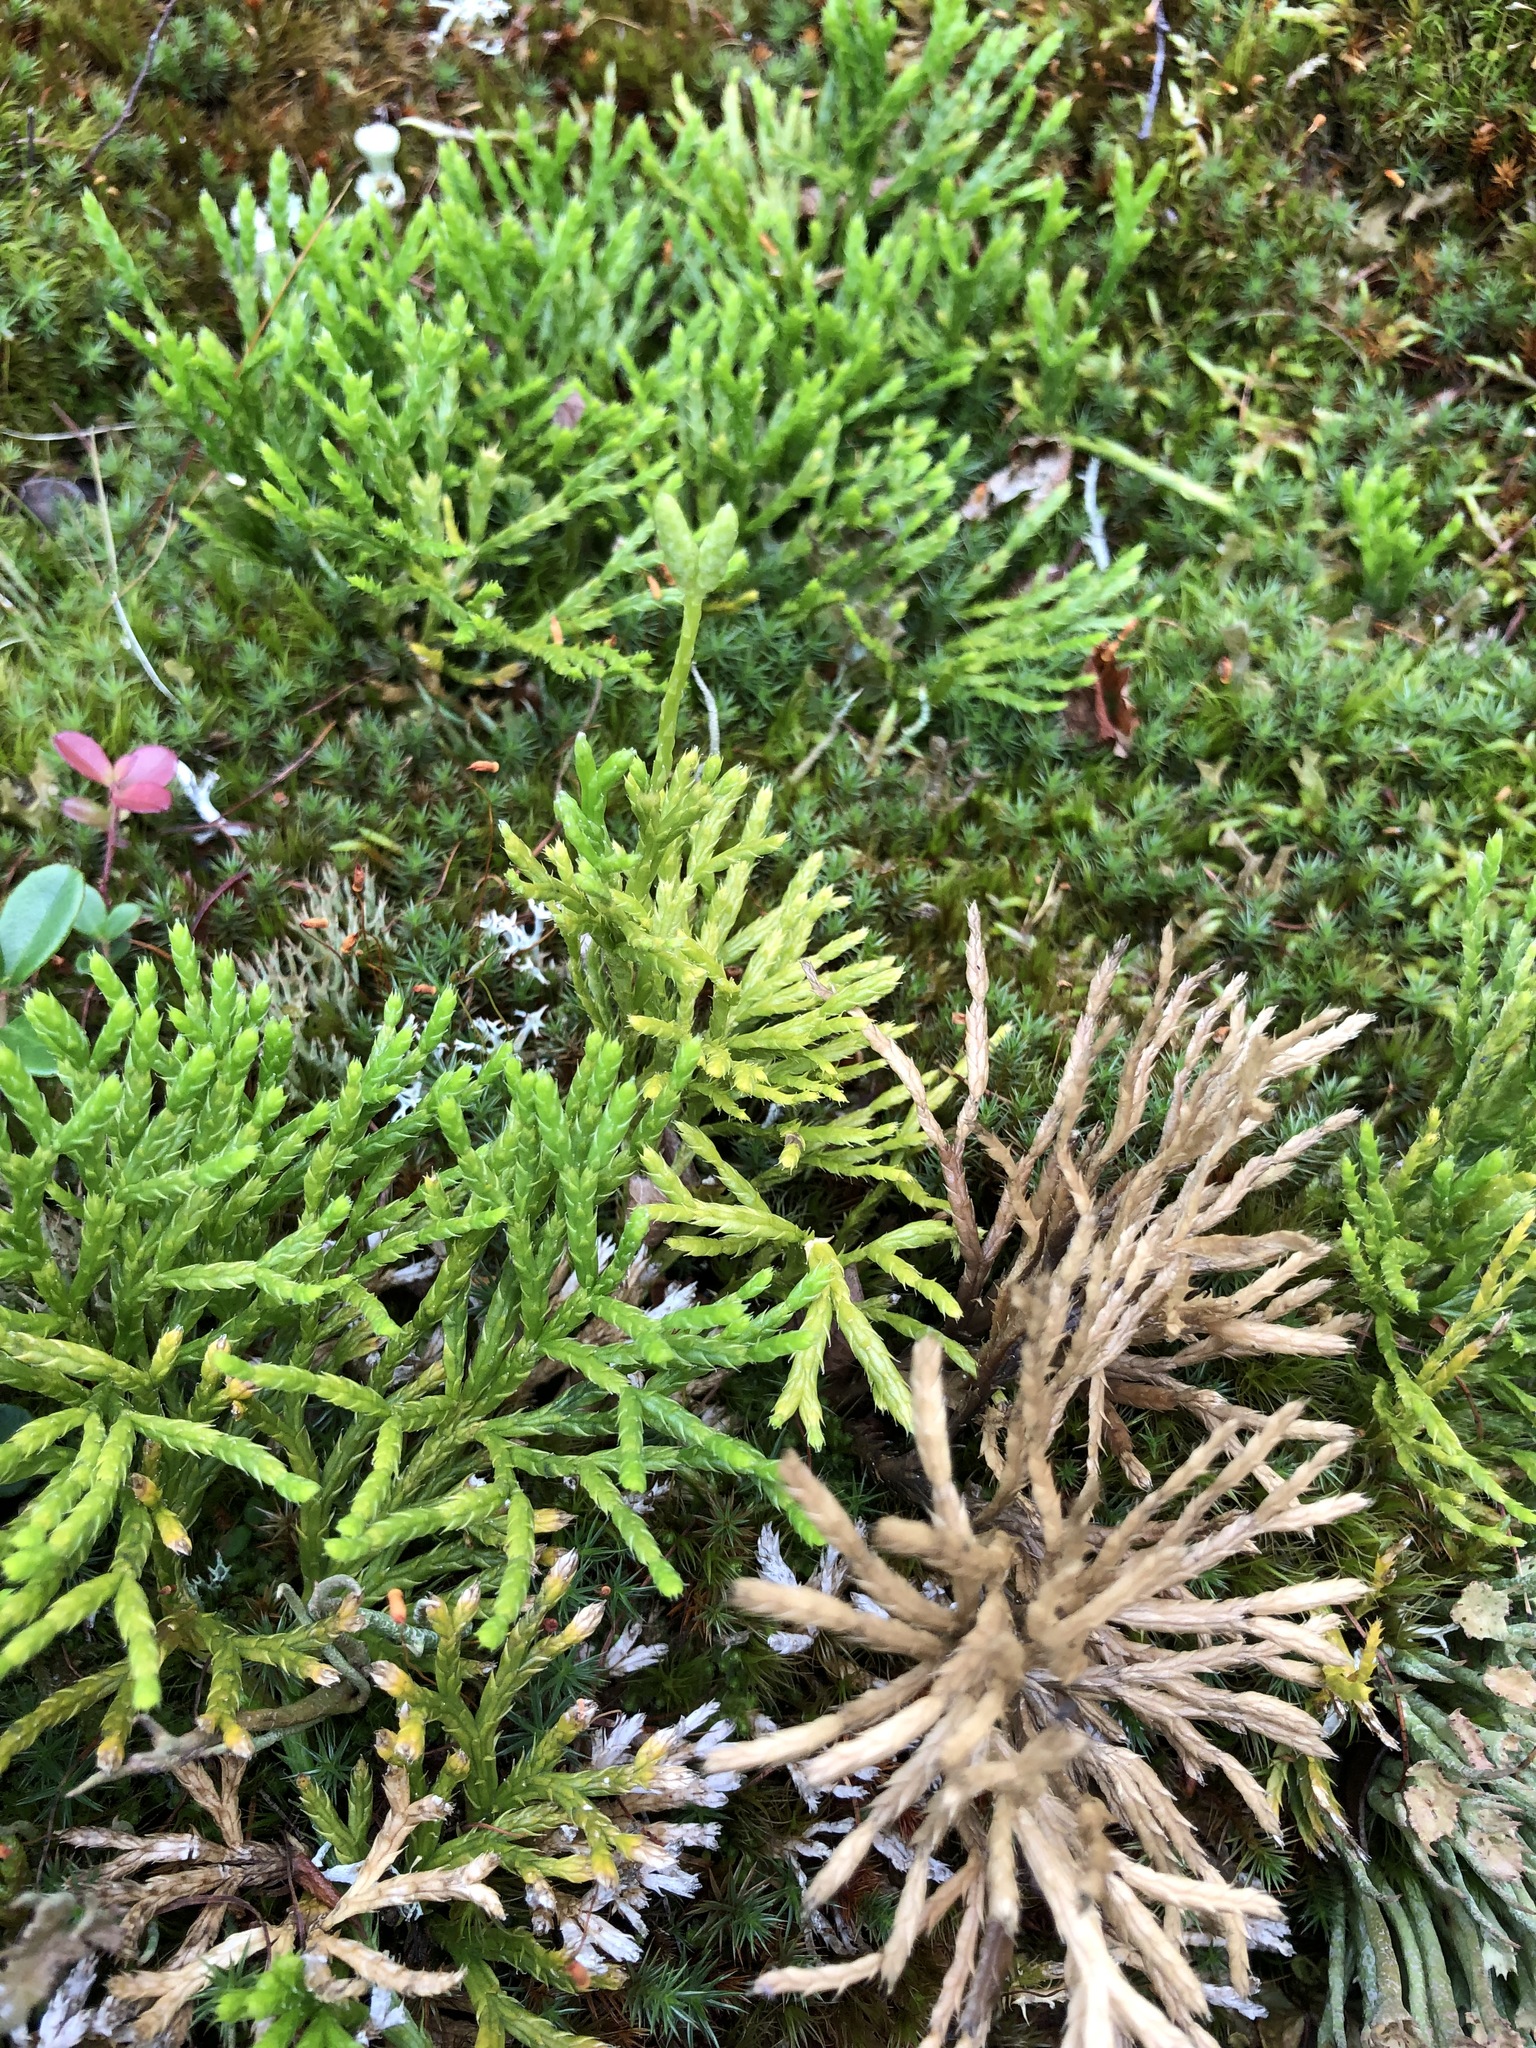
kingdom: Plantae
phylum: Tracheophyta
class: Lycopodiopsida
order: Lycopodiales
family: Lycopodiaceae
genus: Diphasiastrum
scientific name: Diphasiastrum complanatum
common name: Northern running-pine
